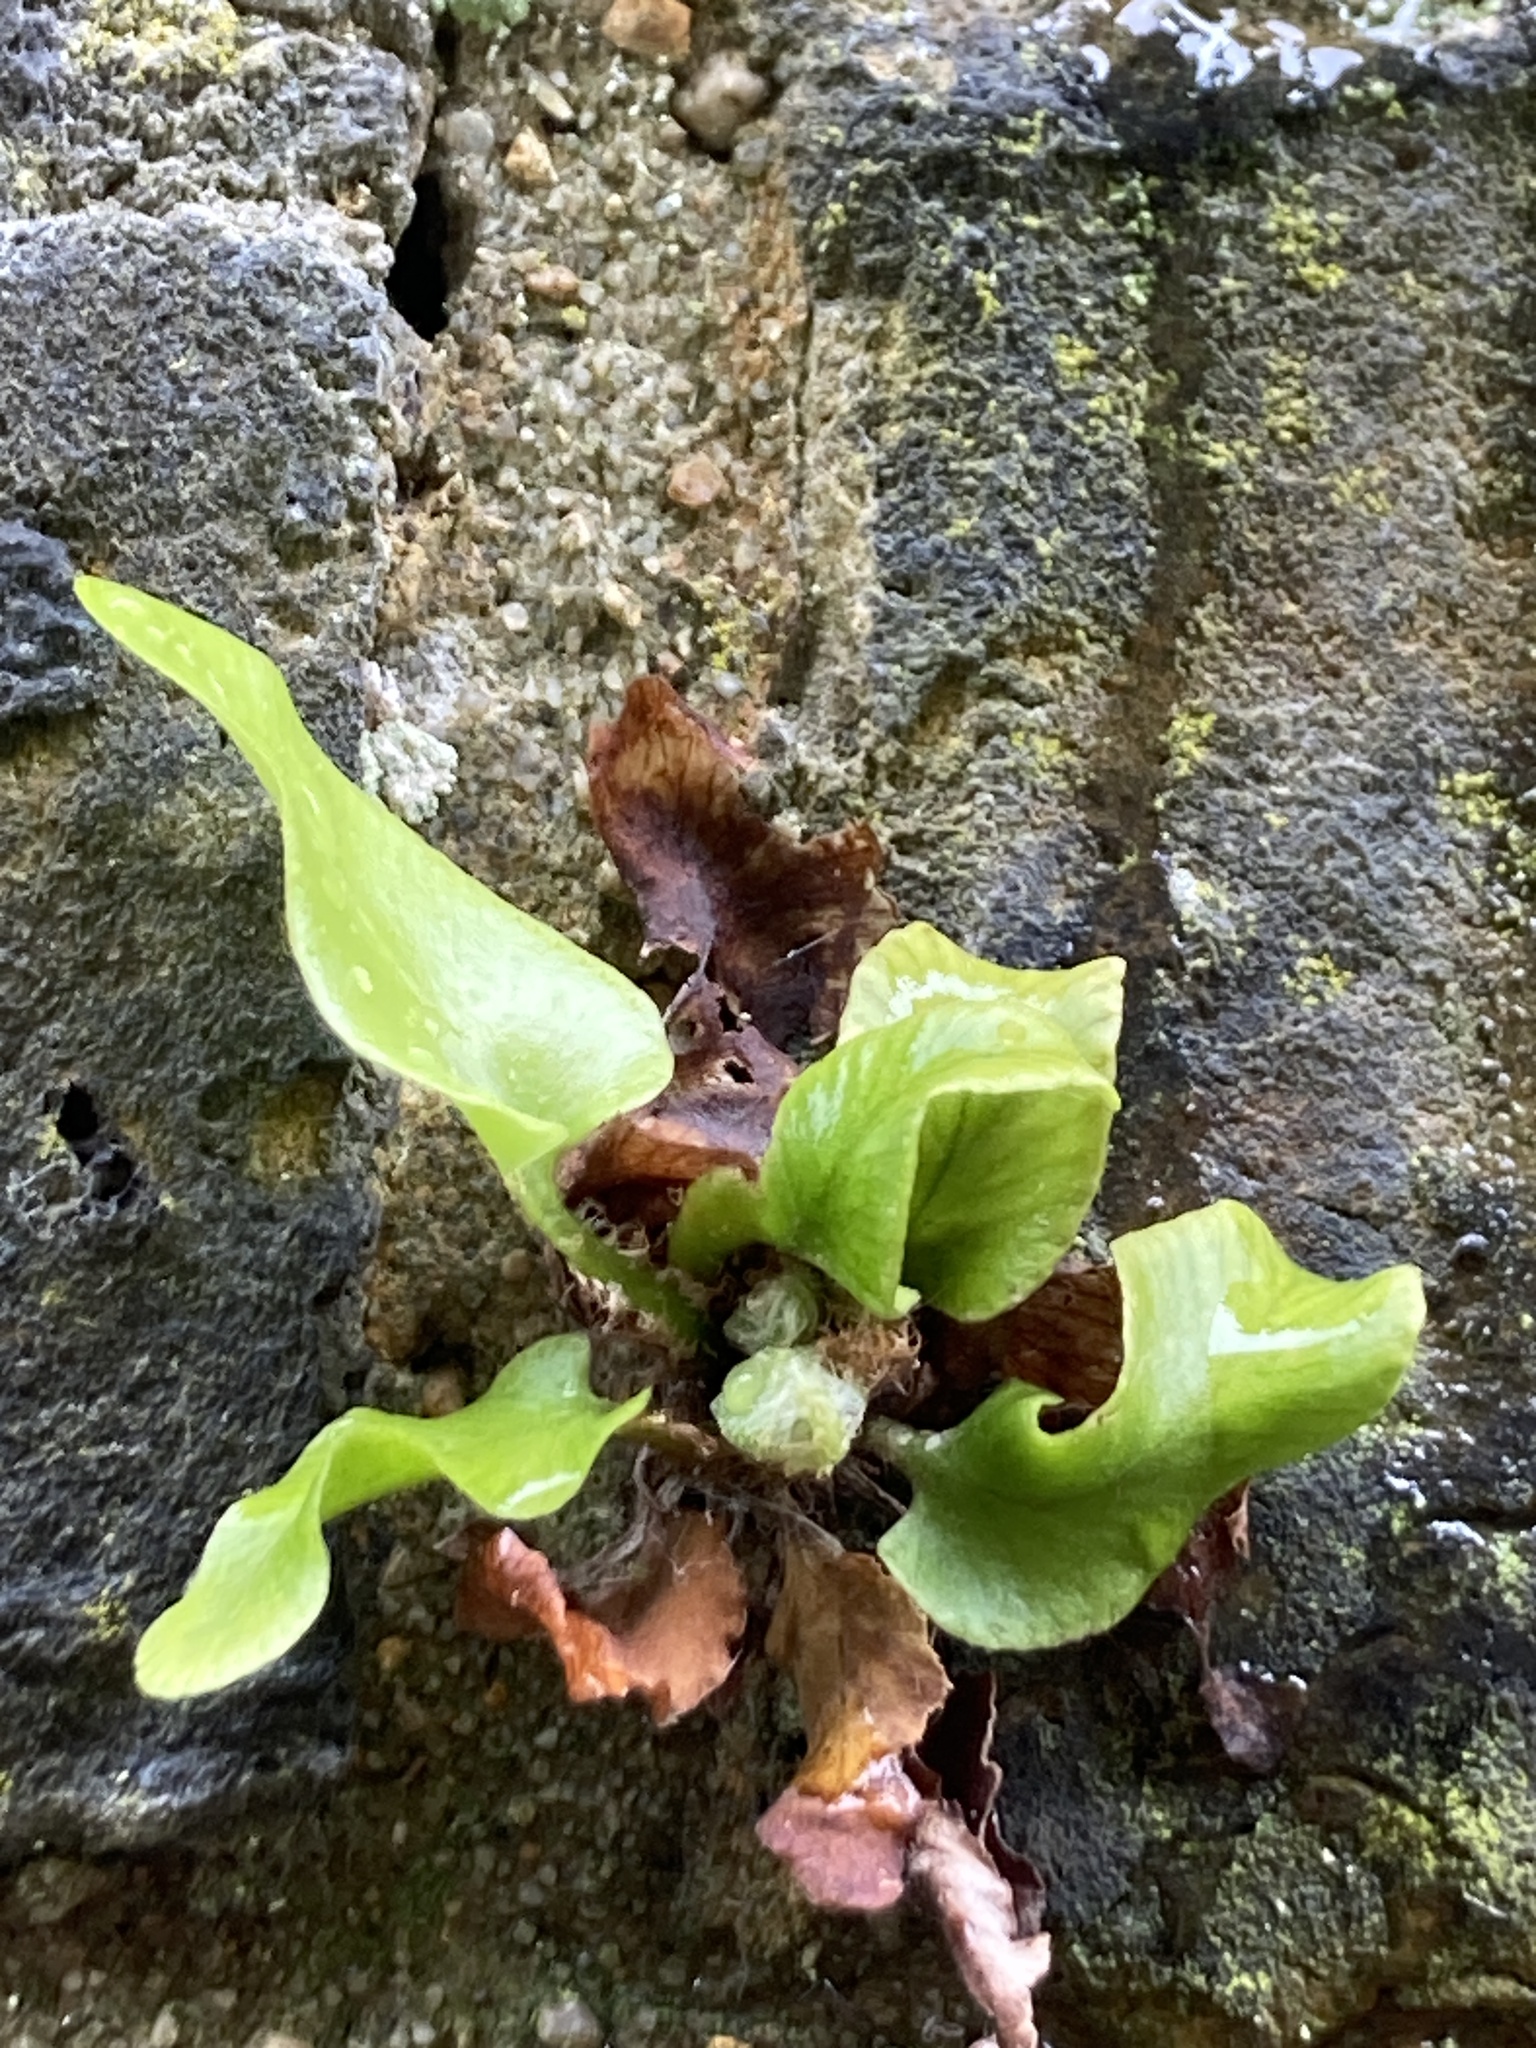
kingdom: Plantae
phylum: Tracheophyta
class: Polypodiopsida
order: Polypodiales
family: Aspleniaceae
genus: Asplenium
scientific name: Asplenium scolopendrium
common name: Hart's-tongue fern
